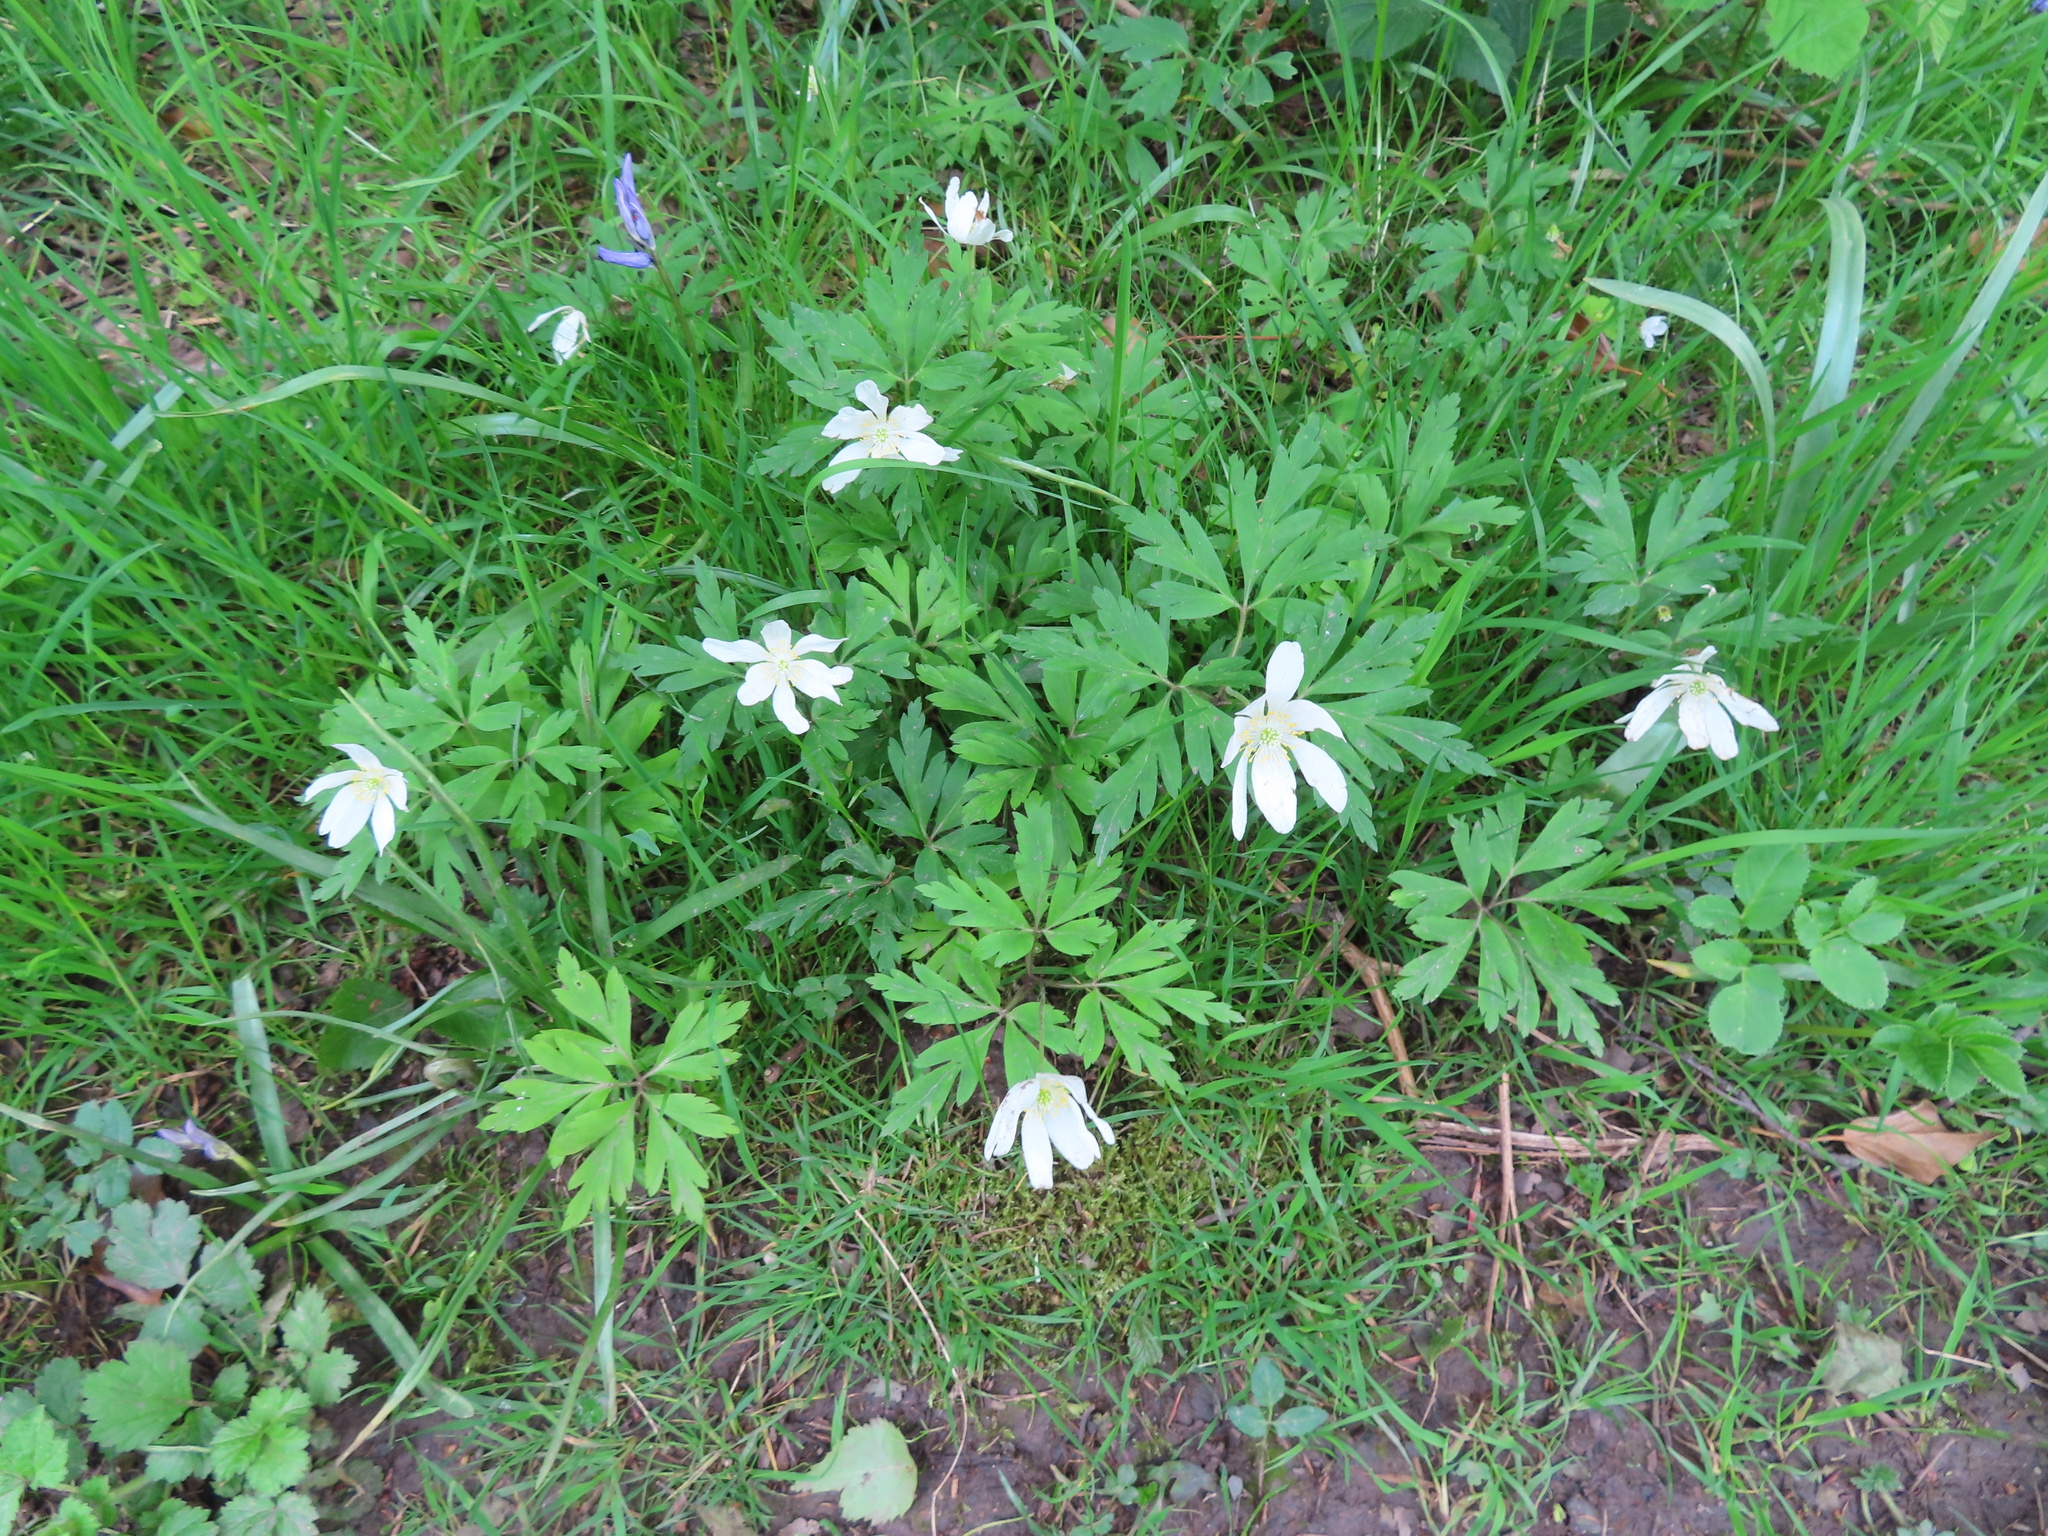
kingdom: Plantae
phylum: Tracheophyta
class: Magnoliopsida
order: Ranunculales
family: Ranunculaceae
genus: Anemone
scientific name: Anemone nemorosa
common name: Wood anemone
